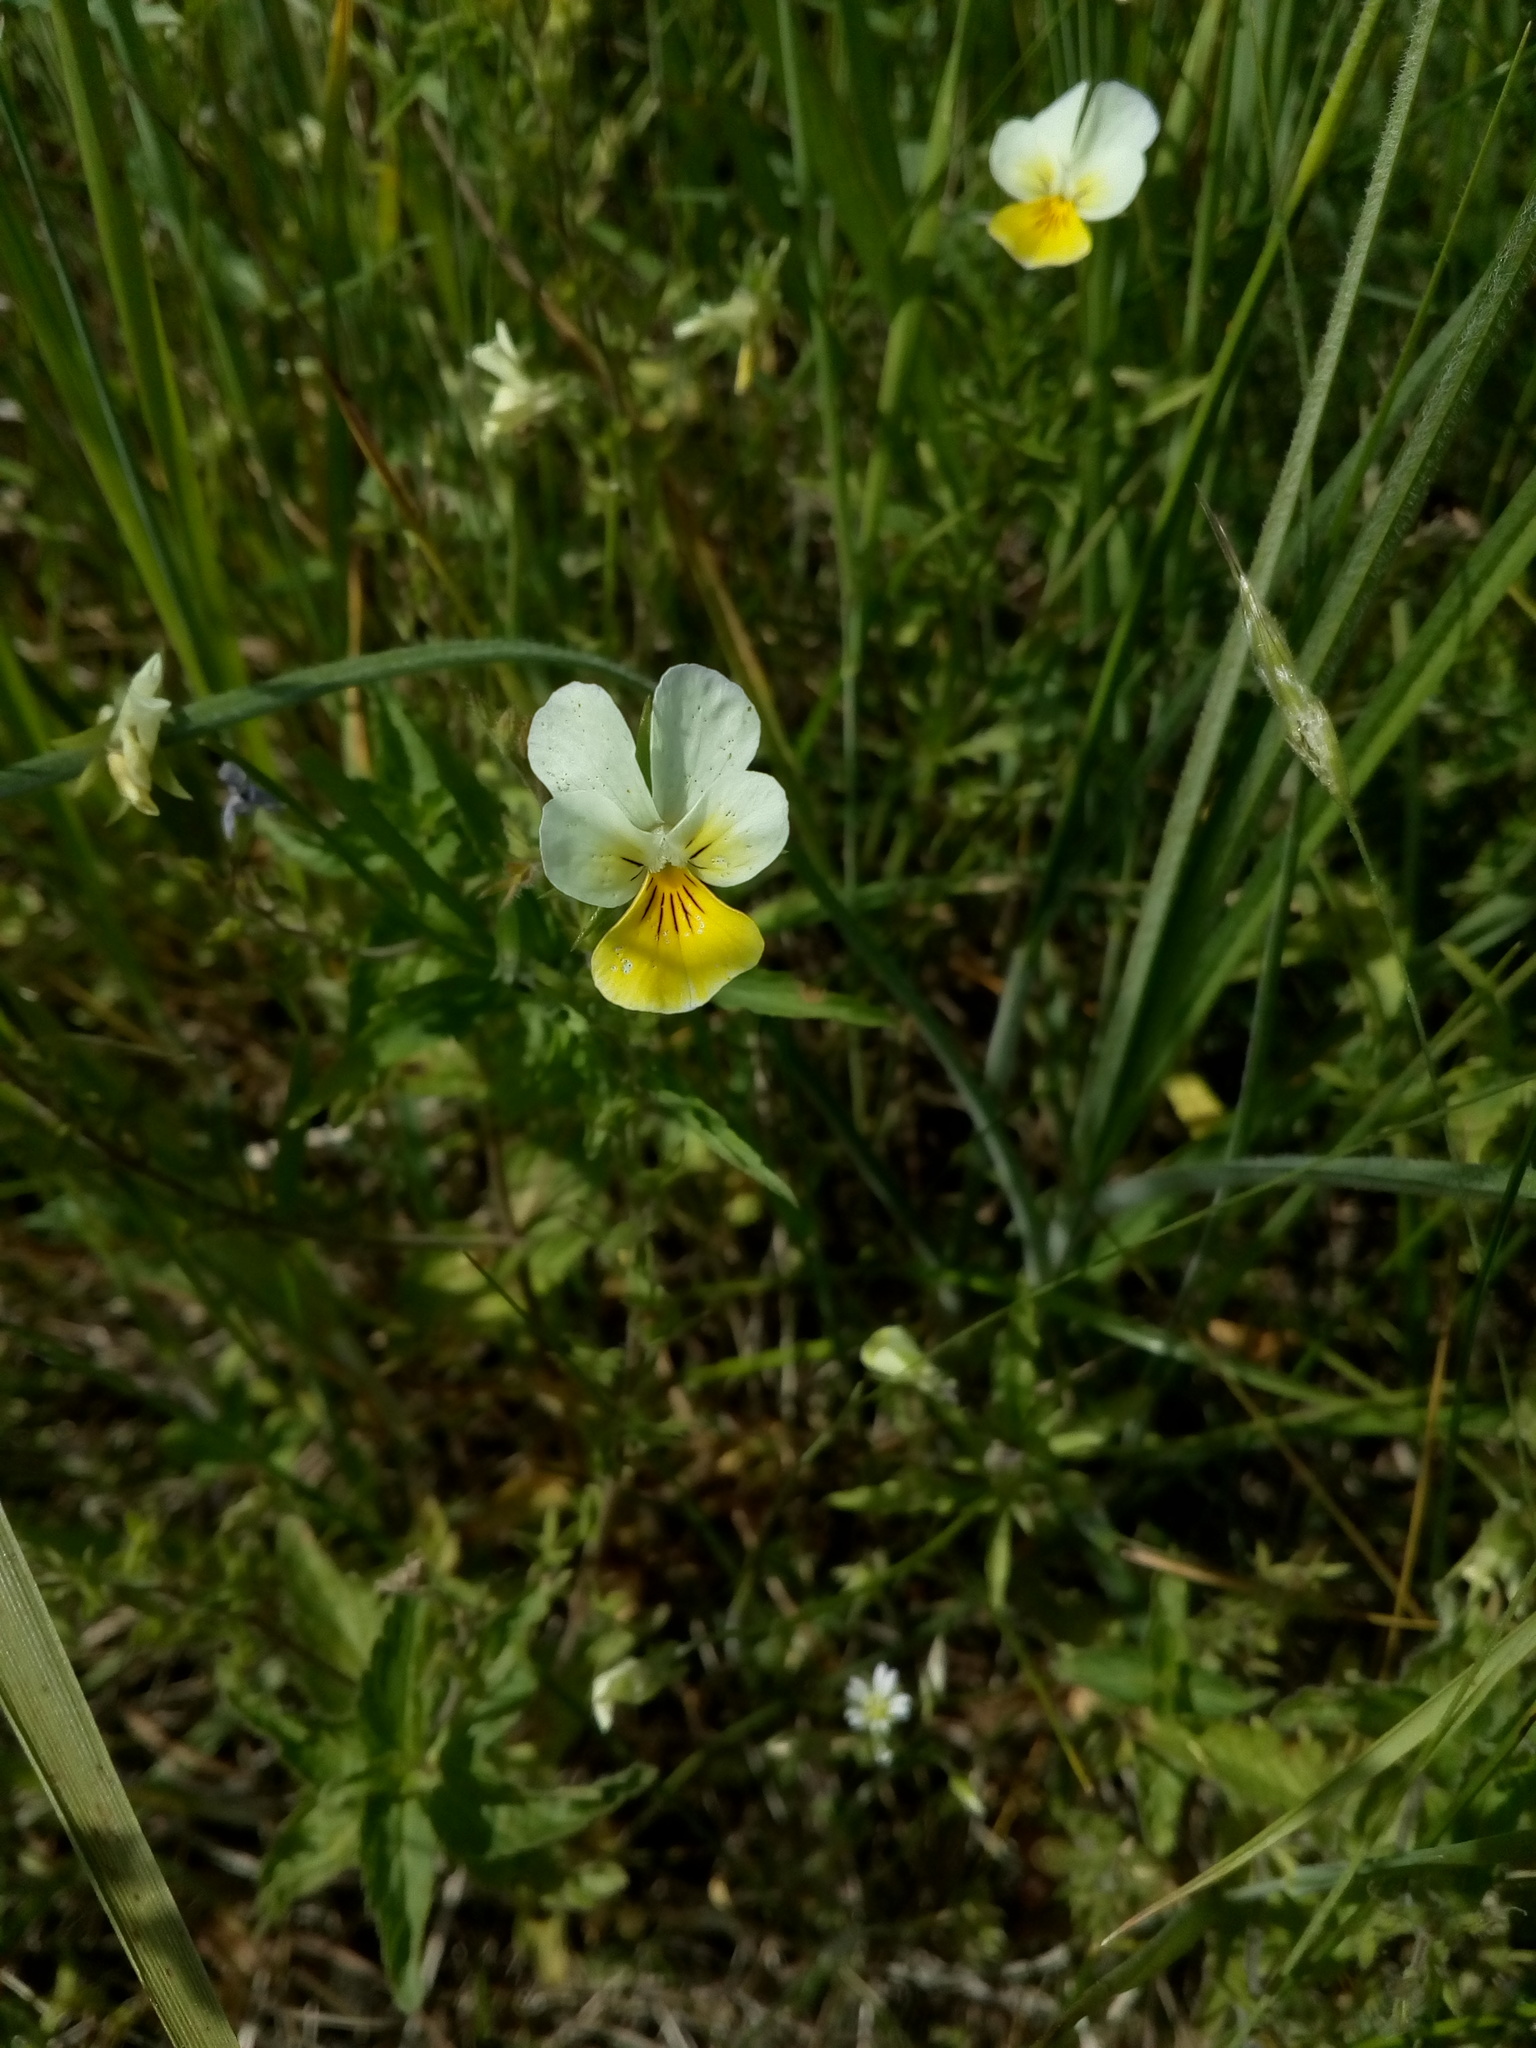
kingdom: Plantae
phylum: Tracheophyta
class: Magnoliopsida
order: Malpighiales
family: Violaceae
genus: Viola
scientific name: Viola tricolor
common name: Pansy
